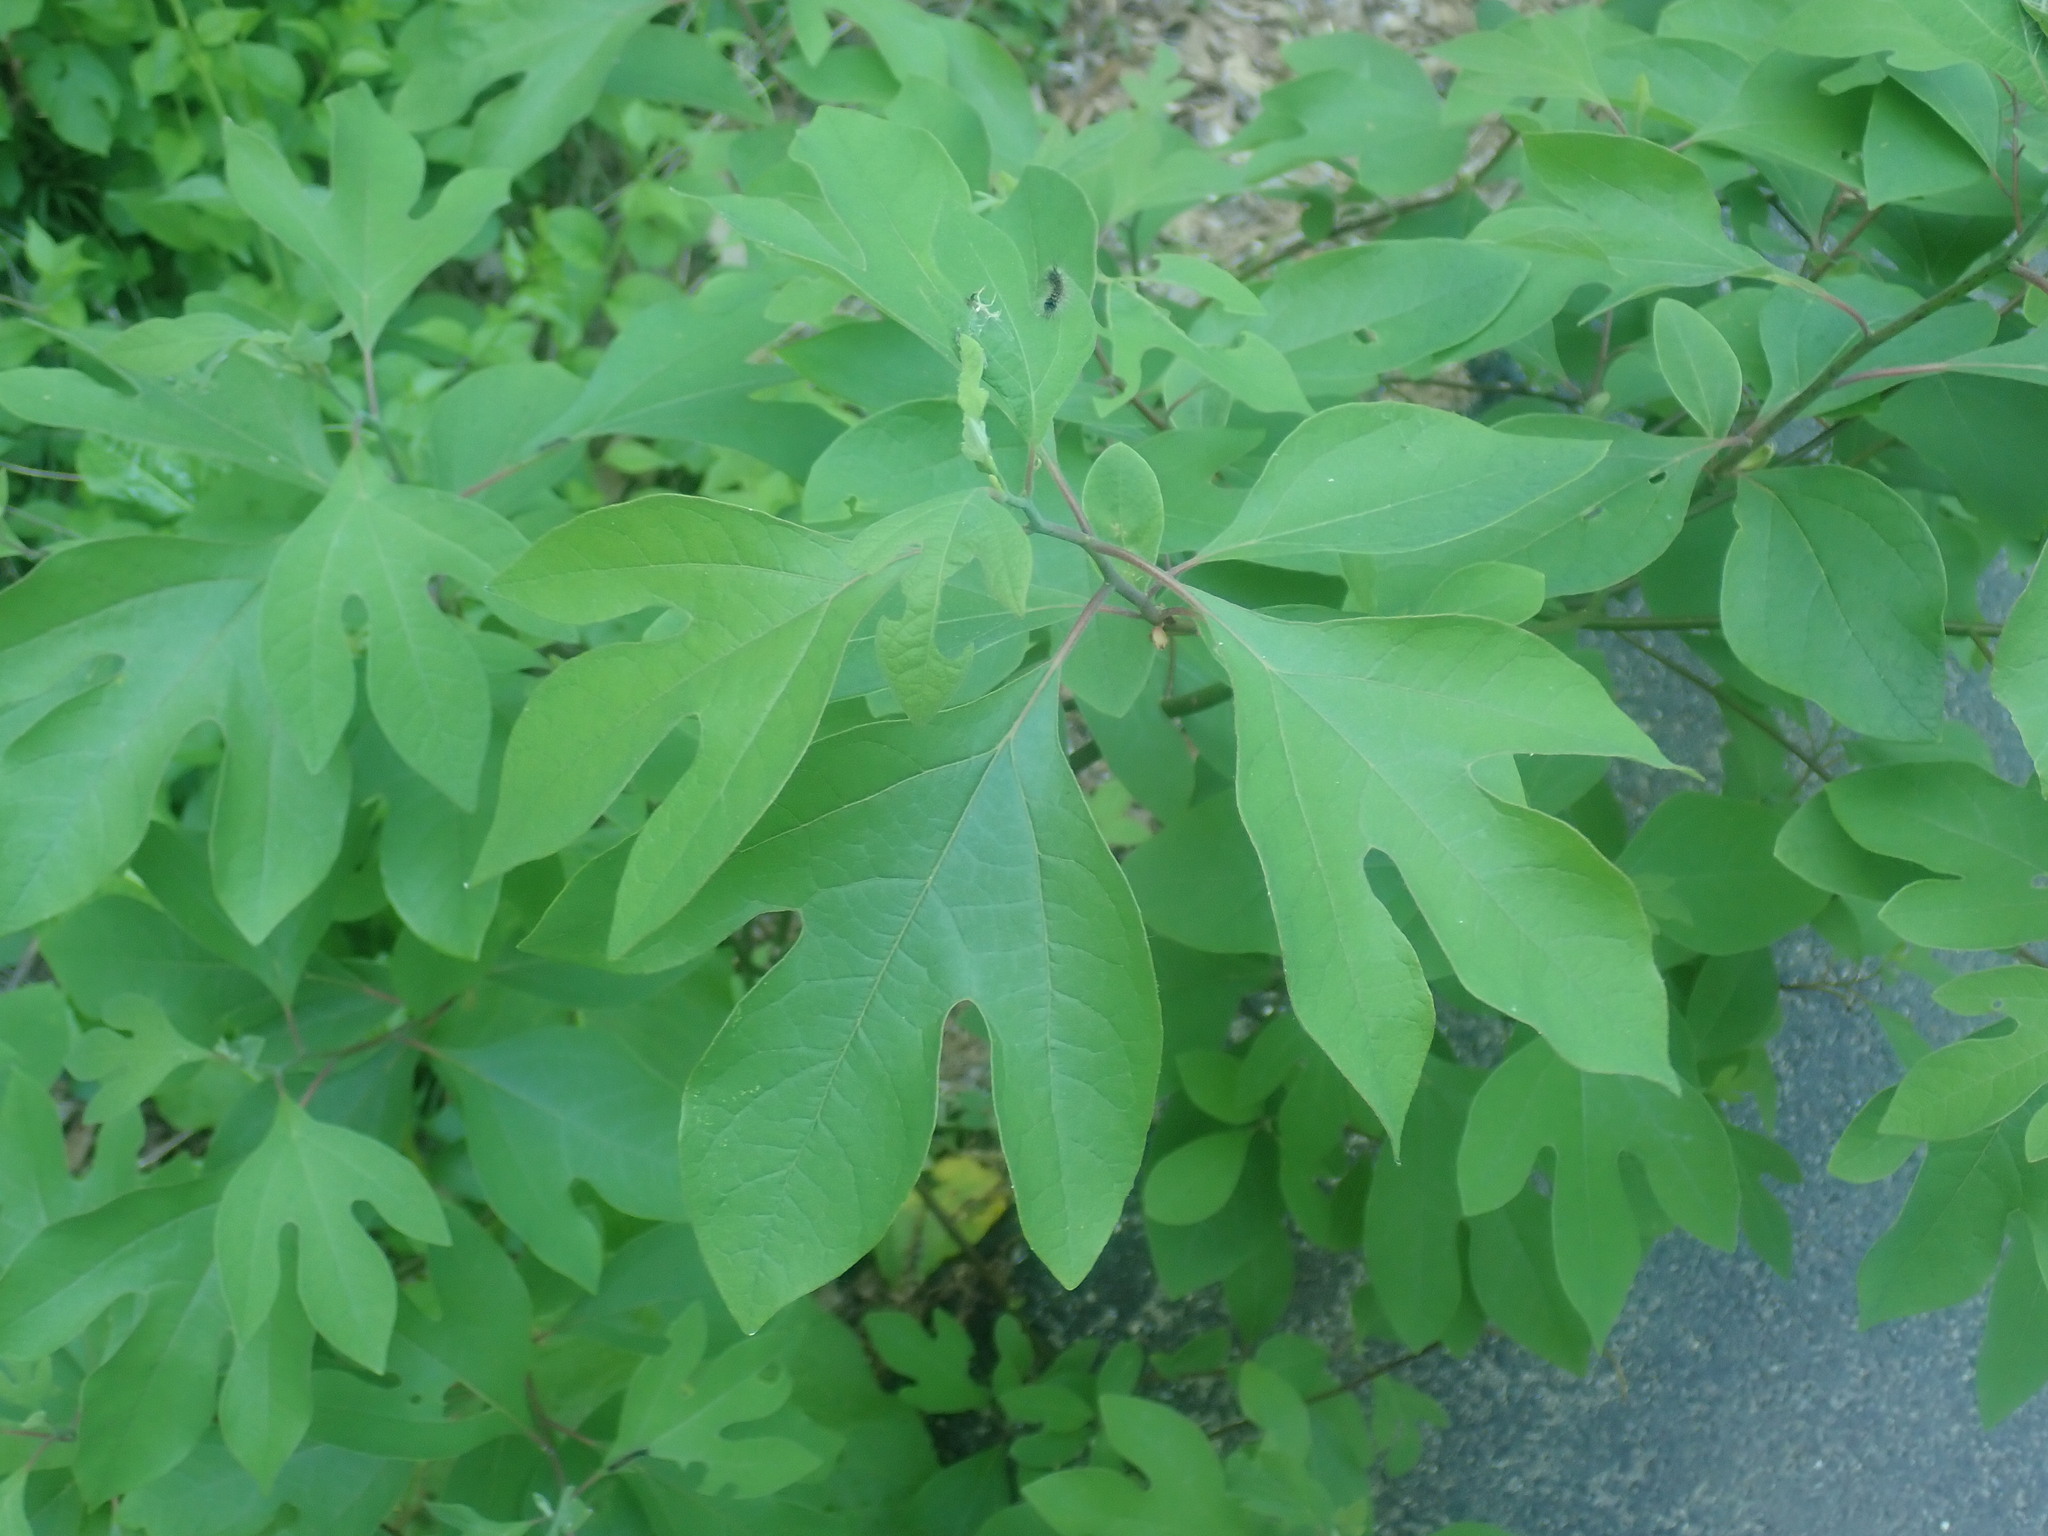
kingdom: Plantae
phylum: Tracheophyta
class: Magnoliopsida
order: Laurales
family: Lauraceae
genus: Sassafras
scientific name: Sassafras albidum
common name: Sassafras
